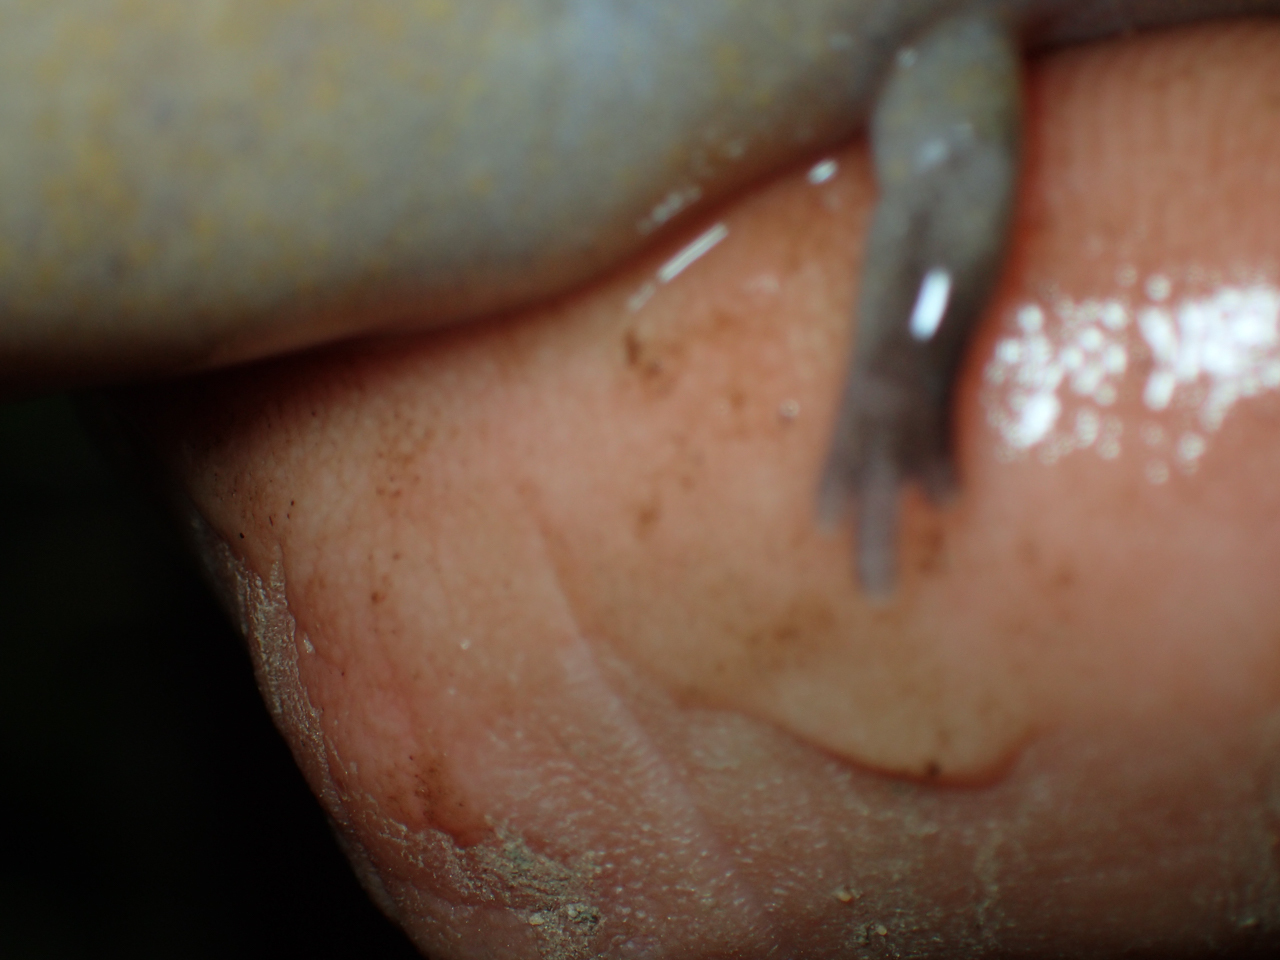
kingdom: Animalia
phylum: Chordata
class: Amphibia
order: Caudata
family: Amphiumidae
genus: Amphiuma
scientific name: Amphiuma tridactylum
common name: Three-toed amphiuma
